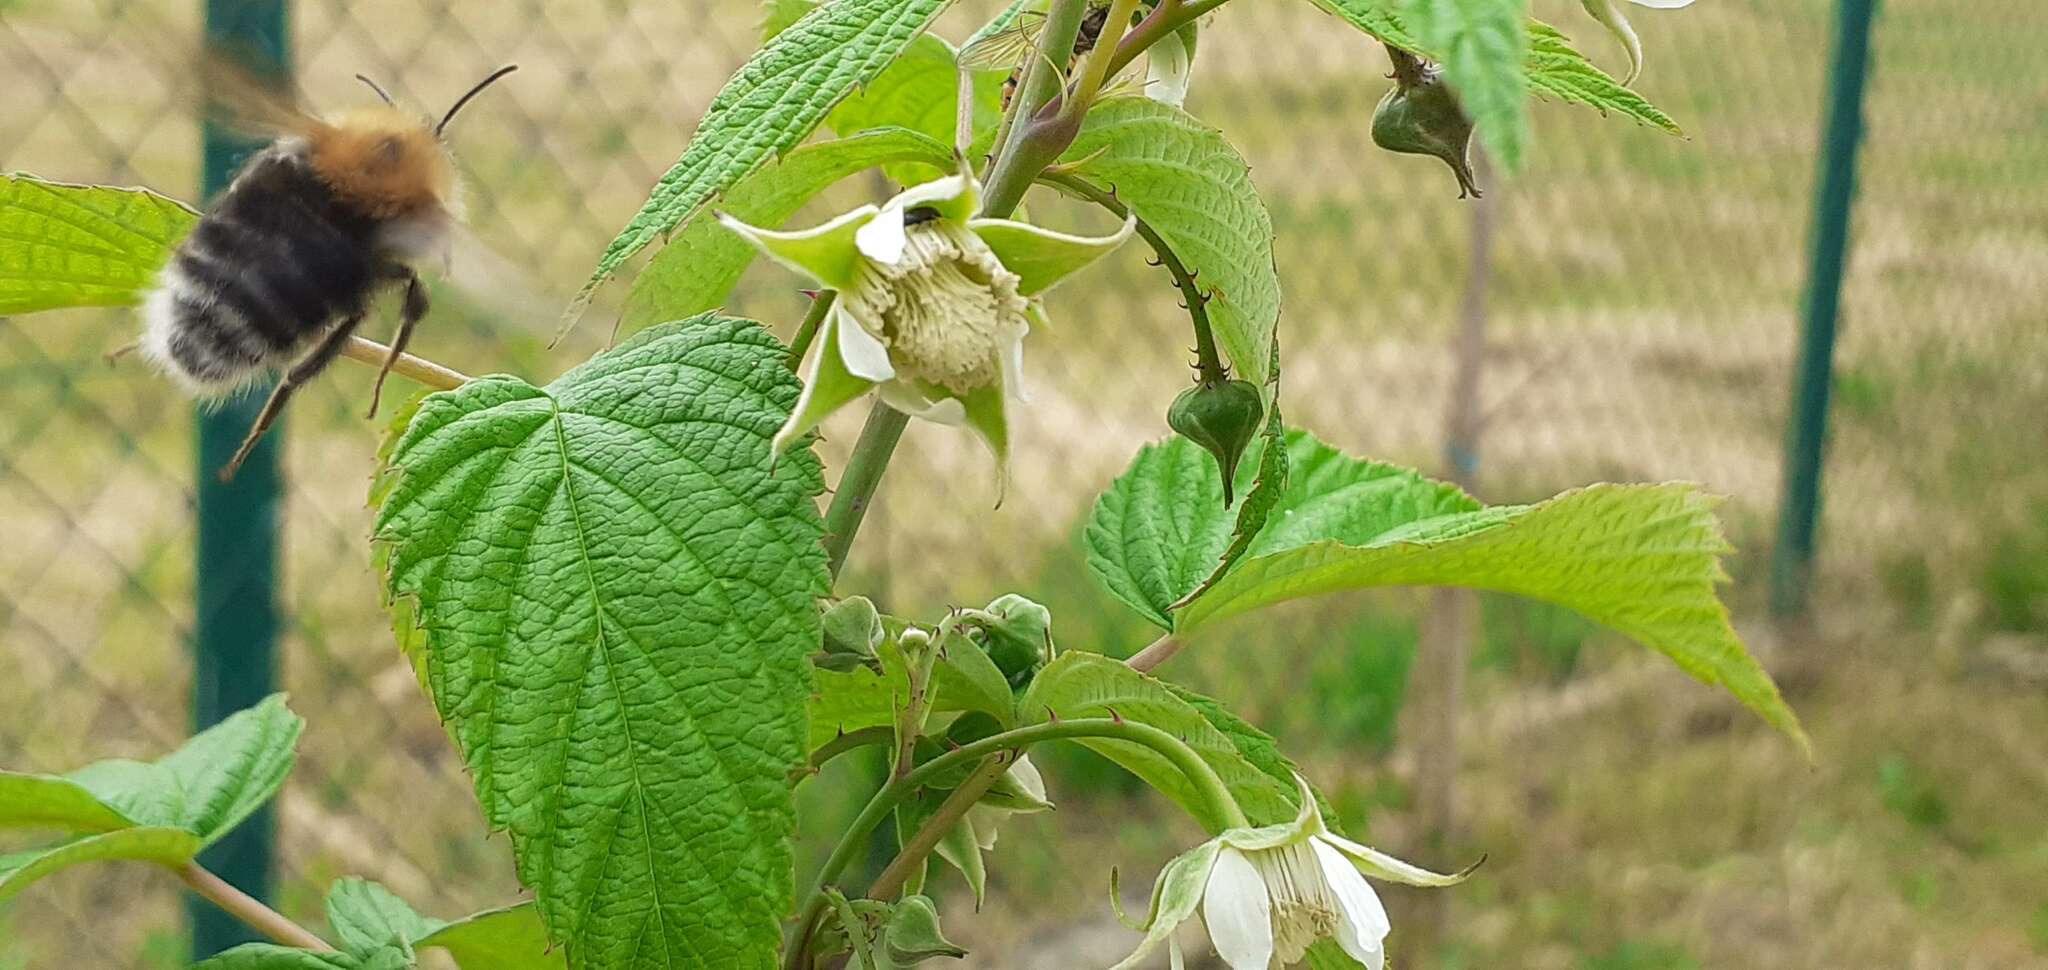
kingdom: Animalia
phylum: Arthropoda
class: Insecta
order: Hymenoptera
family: Apidae
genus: Bombus
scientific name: Bombus pascuorum
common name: Common carder bee
